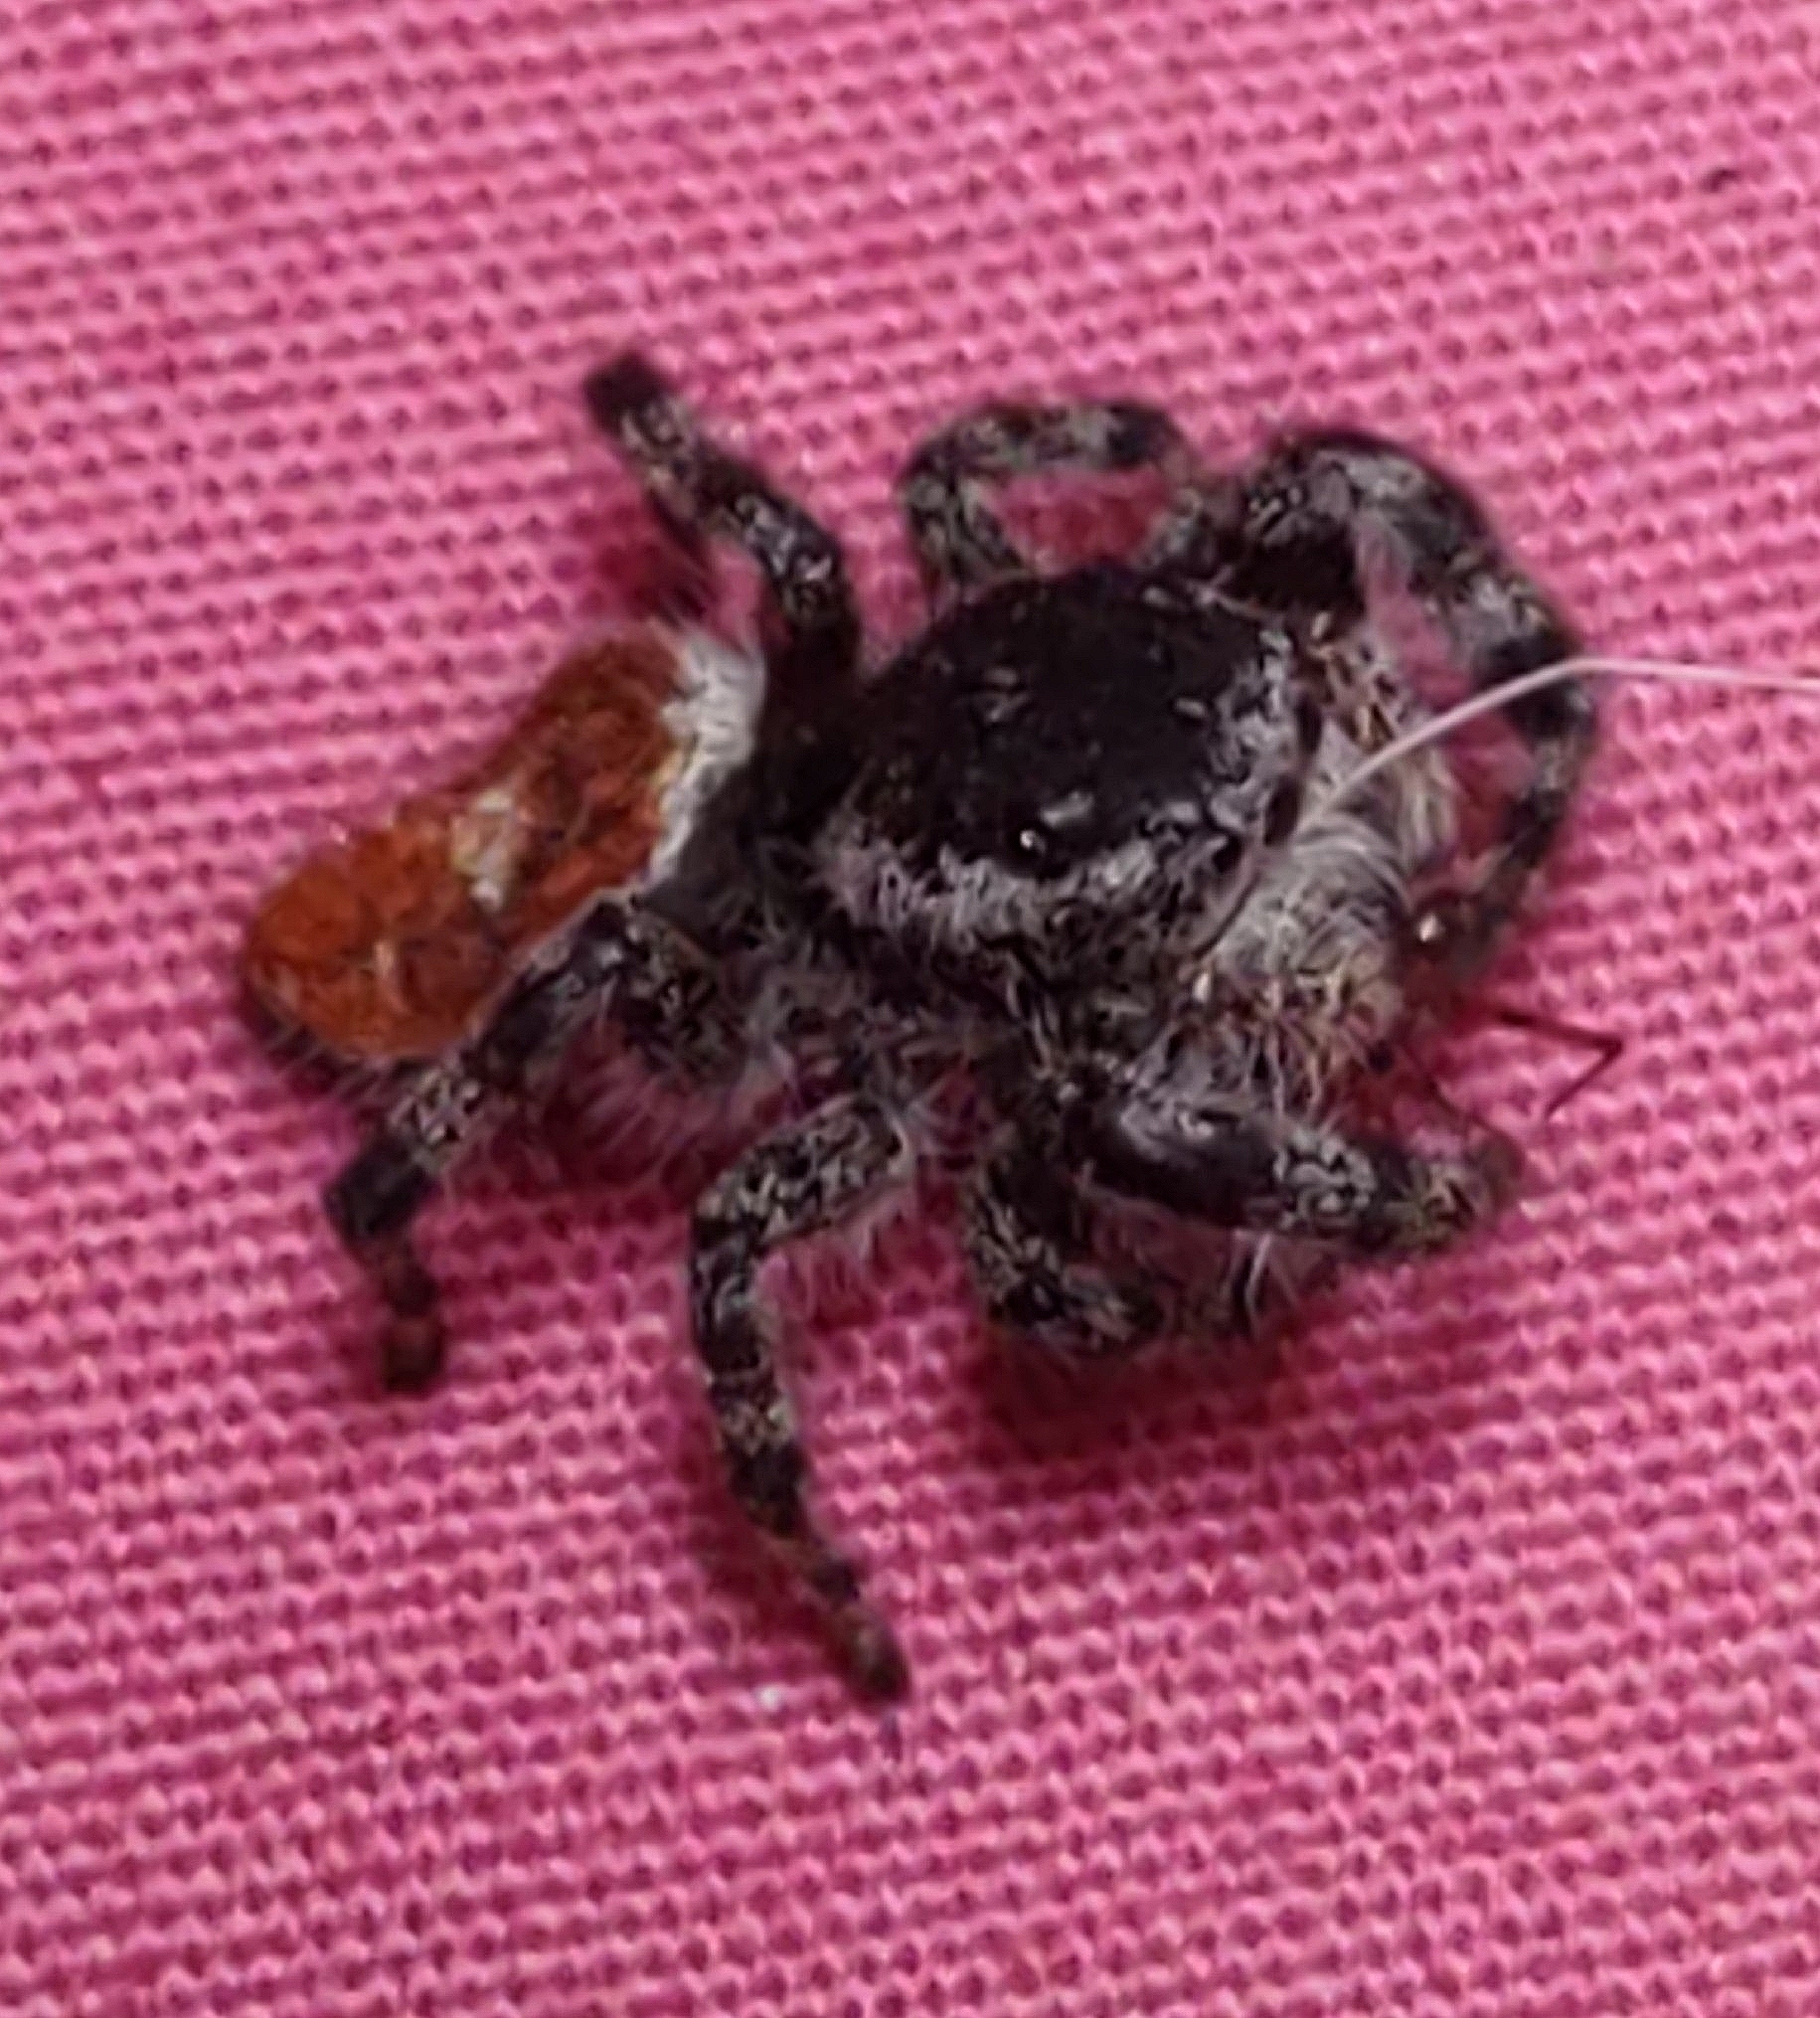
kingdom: Animalia
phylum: Arthropoda
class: Arachnida
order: Araneae
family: Salticidae
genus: Phidippus
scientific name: Phidippus tyrrelli
